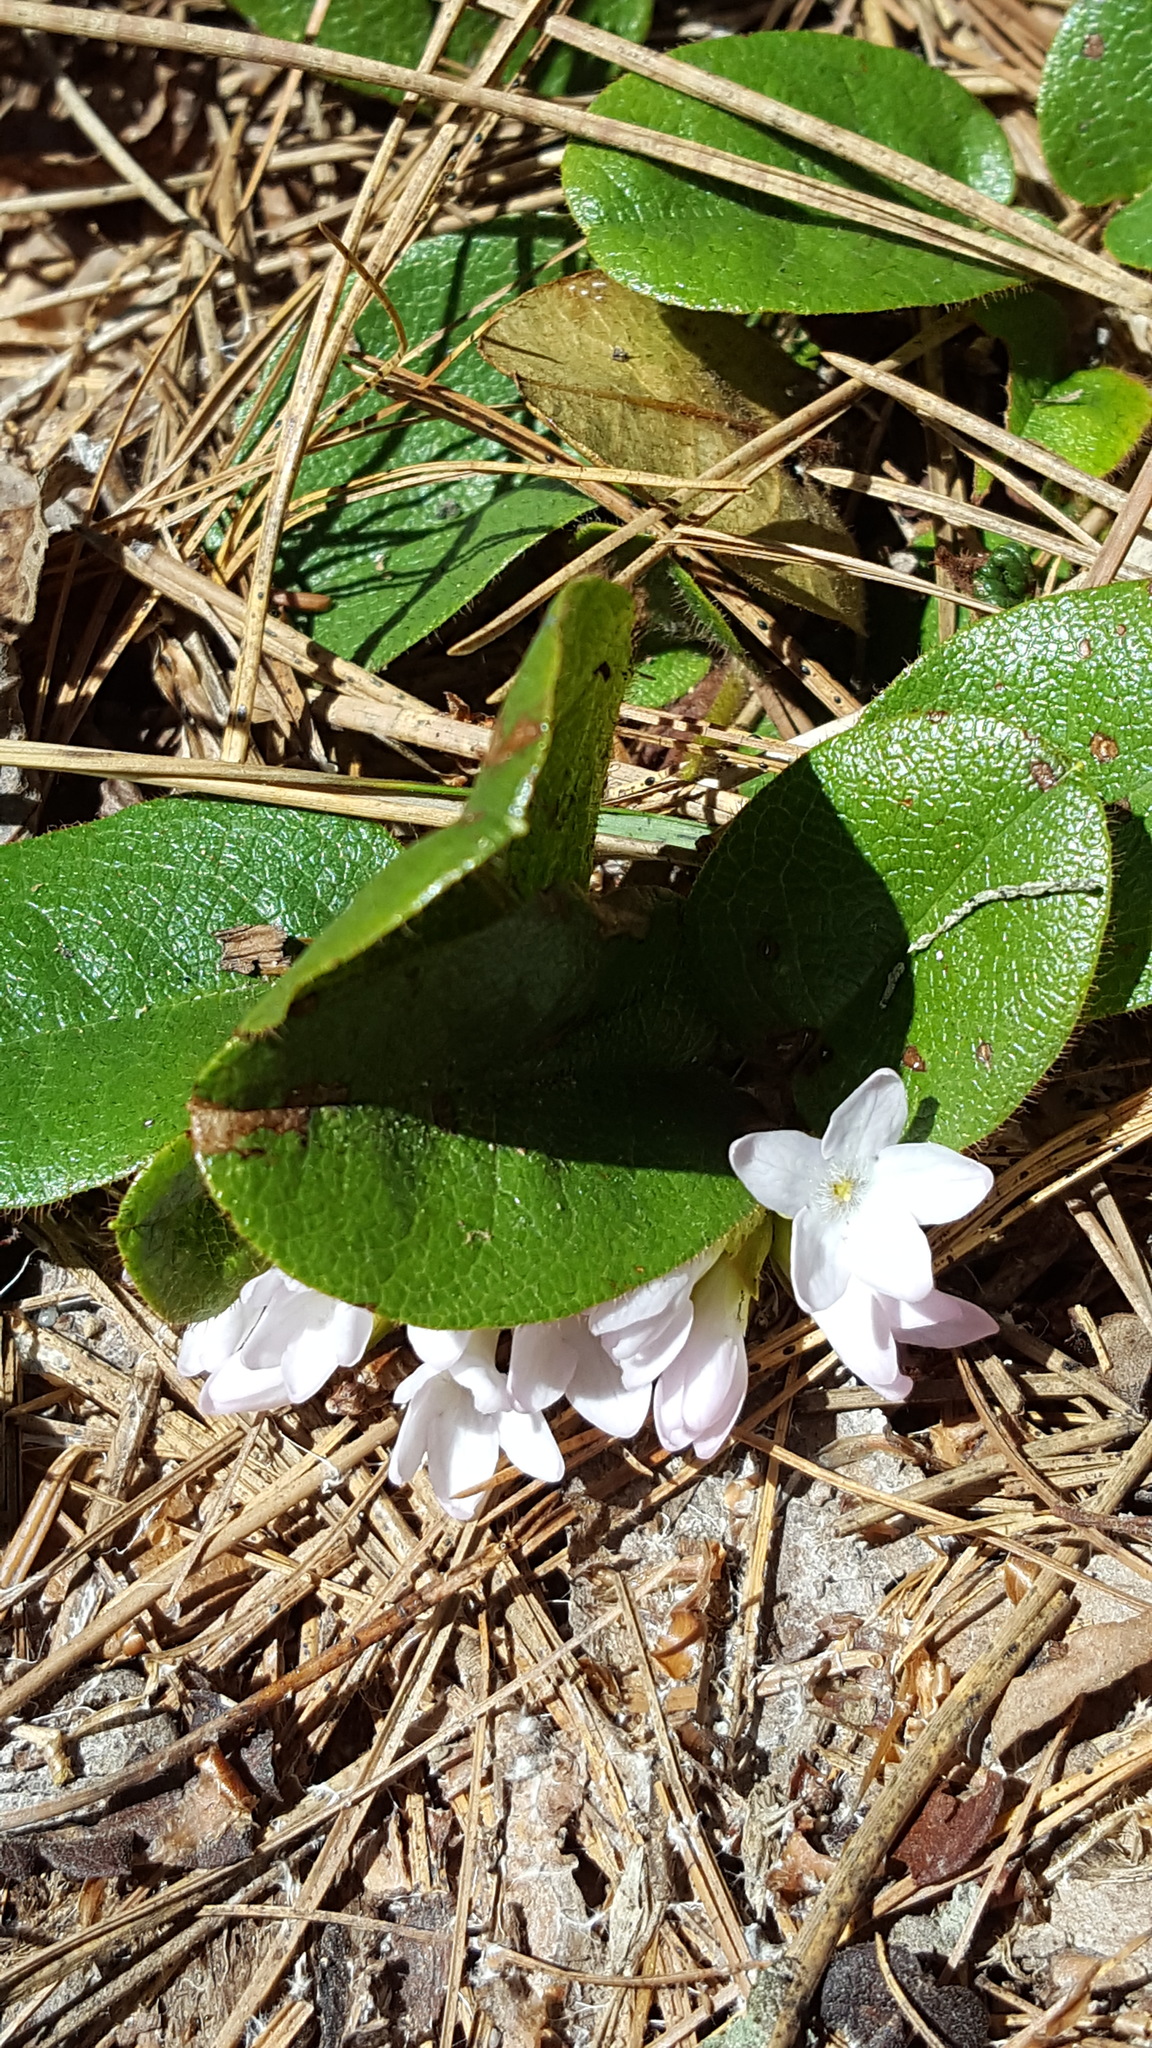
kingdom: Plantae
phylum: Tracheophyta
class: Magnoliopsida
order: Ericales
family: Ericaceae
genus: Epigaea
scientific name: Epigaea repens
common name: Gravelroot
